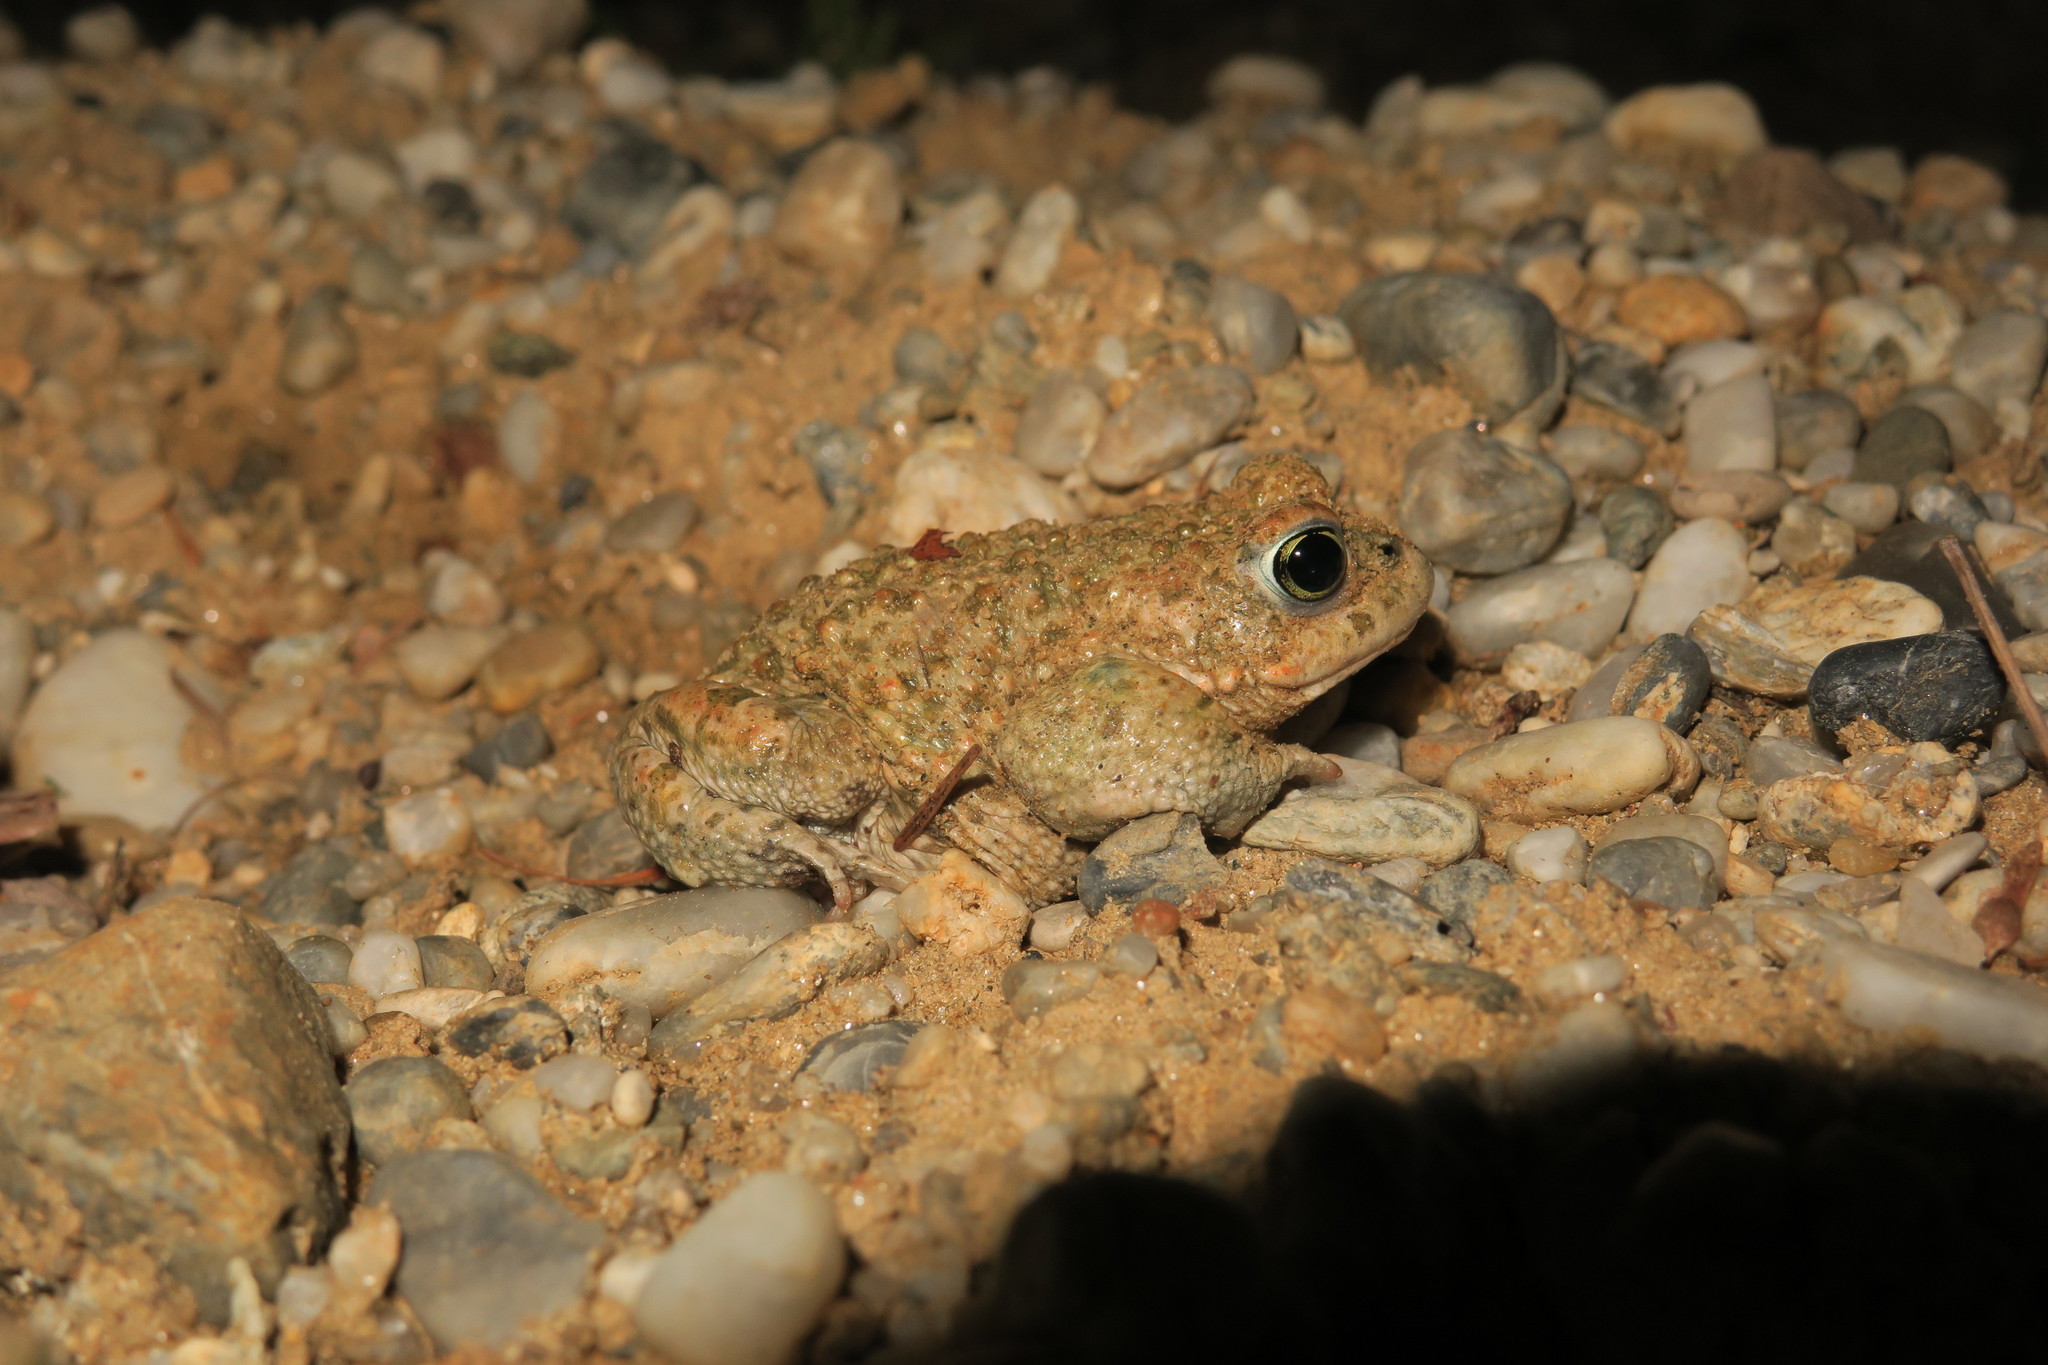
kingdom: Animalia
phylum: Chordata
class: Amphibia
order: Anura
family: Bufonidae
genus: Epidalea
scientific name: Epidalea calamita
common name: Natterjack toad
